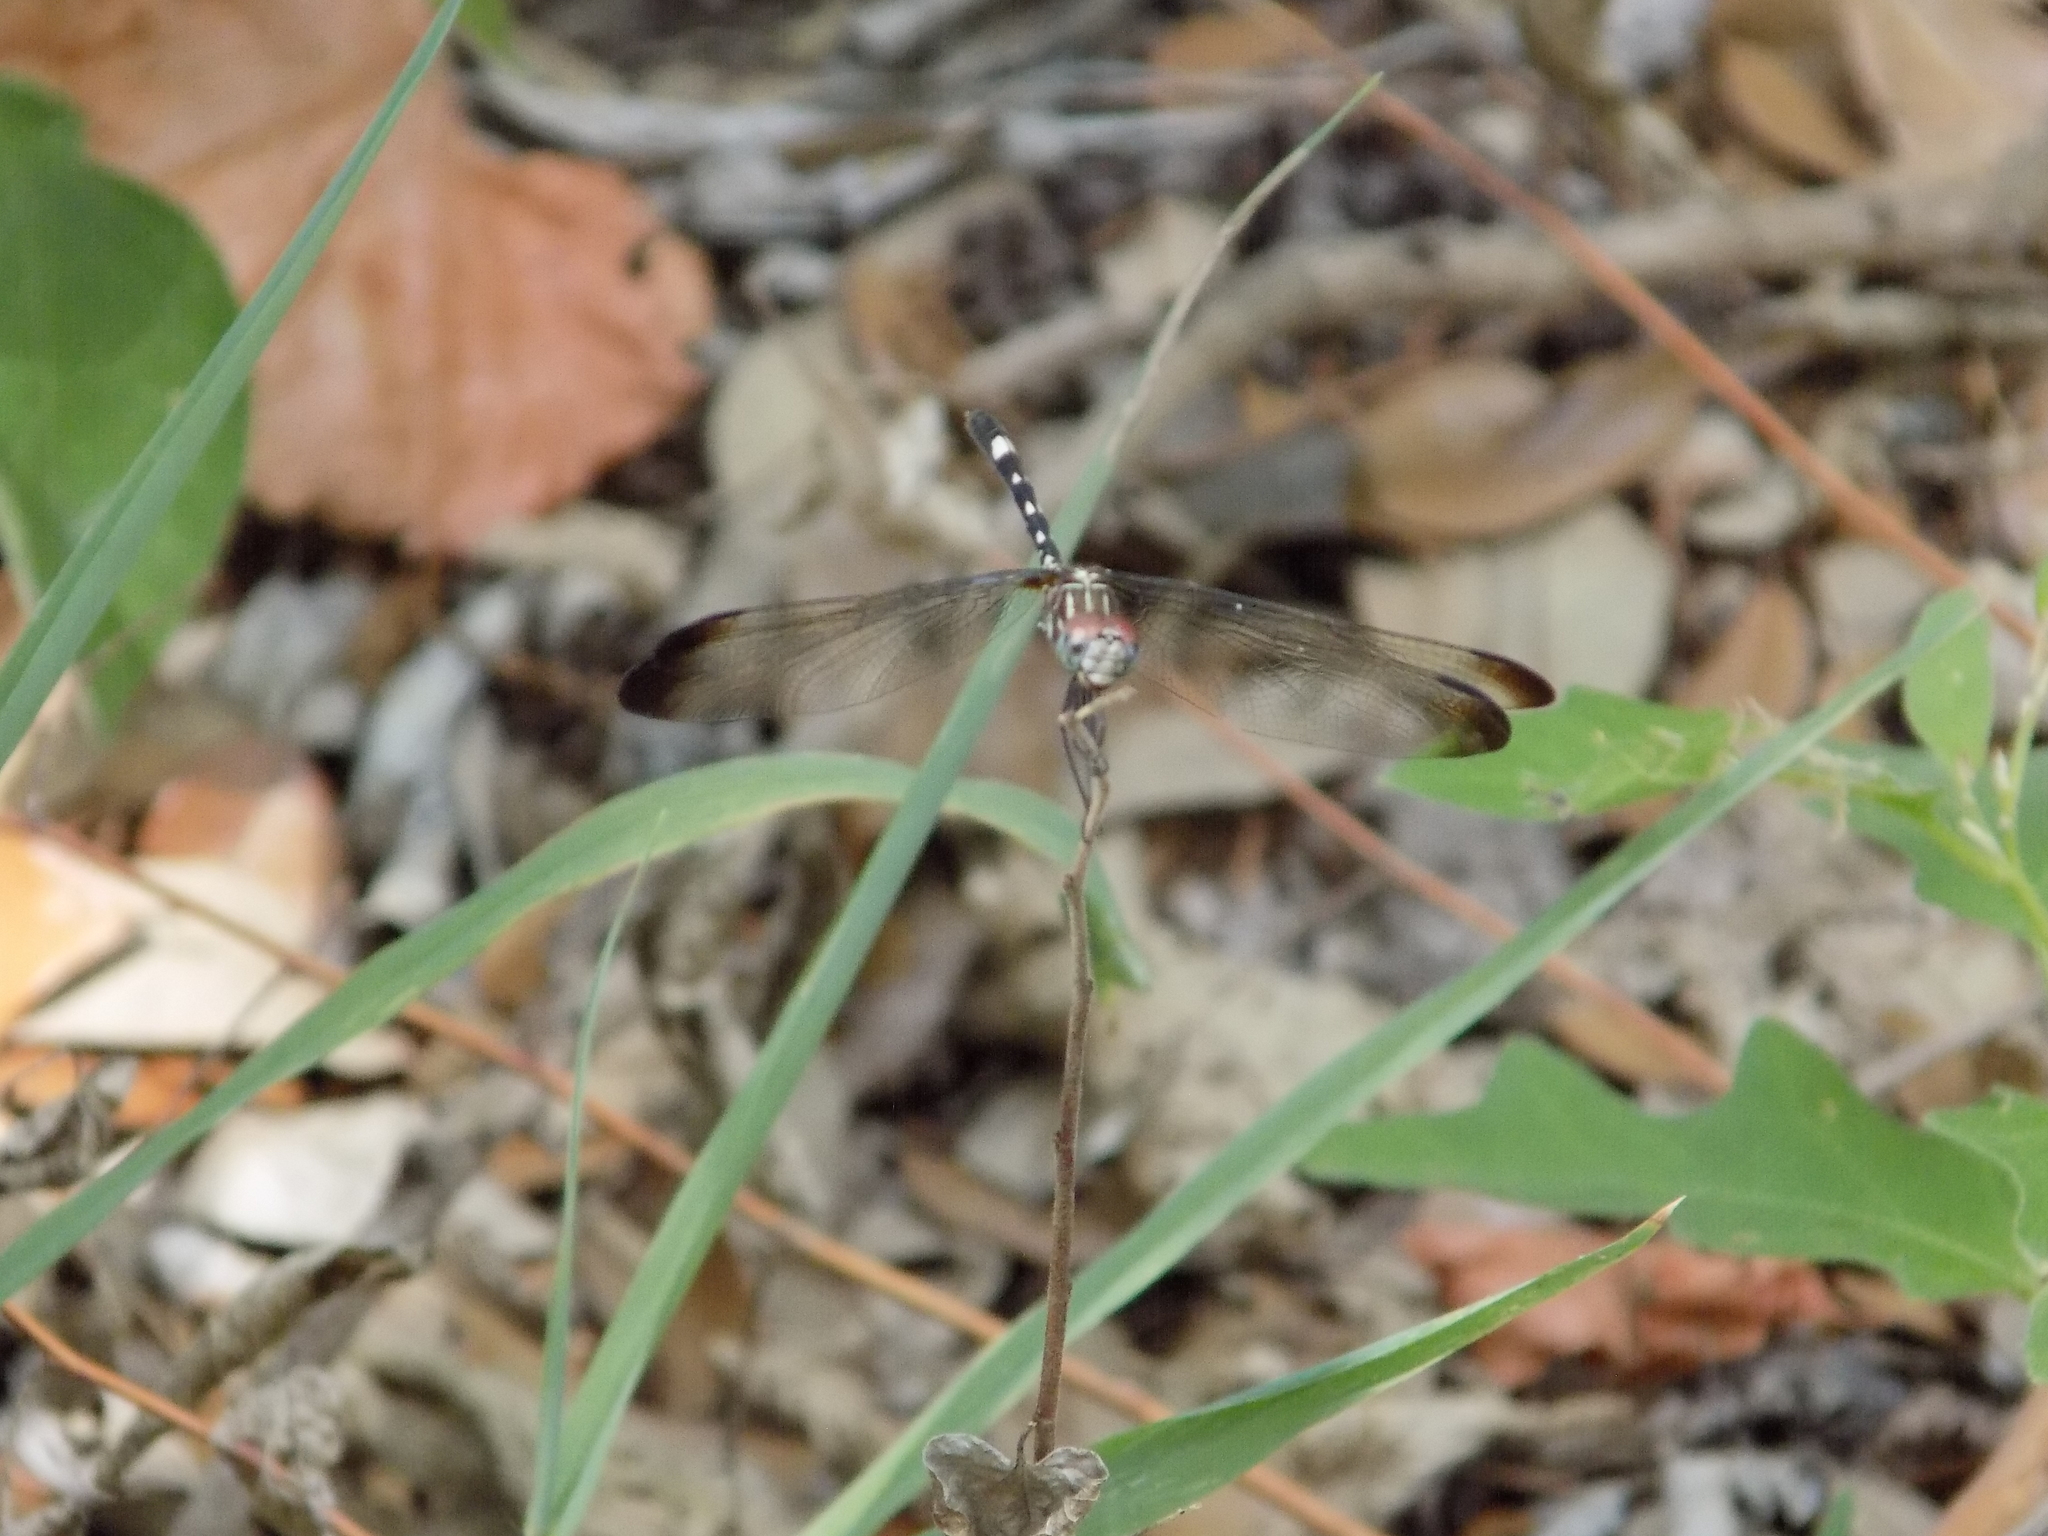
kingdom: Animalia
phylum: Arthropoda
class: Insecta
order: Odonata
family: Libellulidae
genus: Dythemis
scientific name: Dythemis velox
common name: Swift setwing
